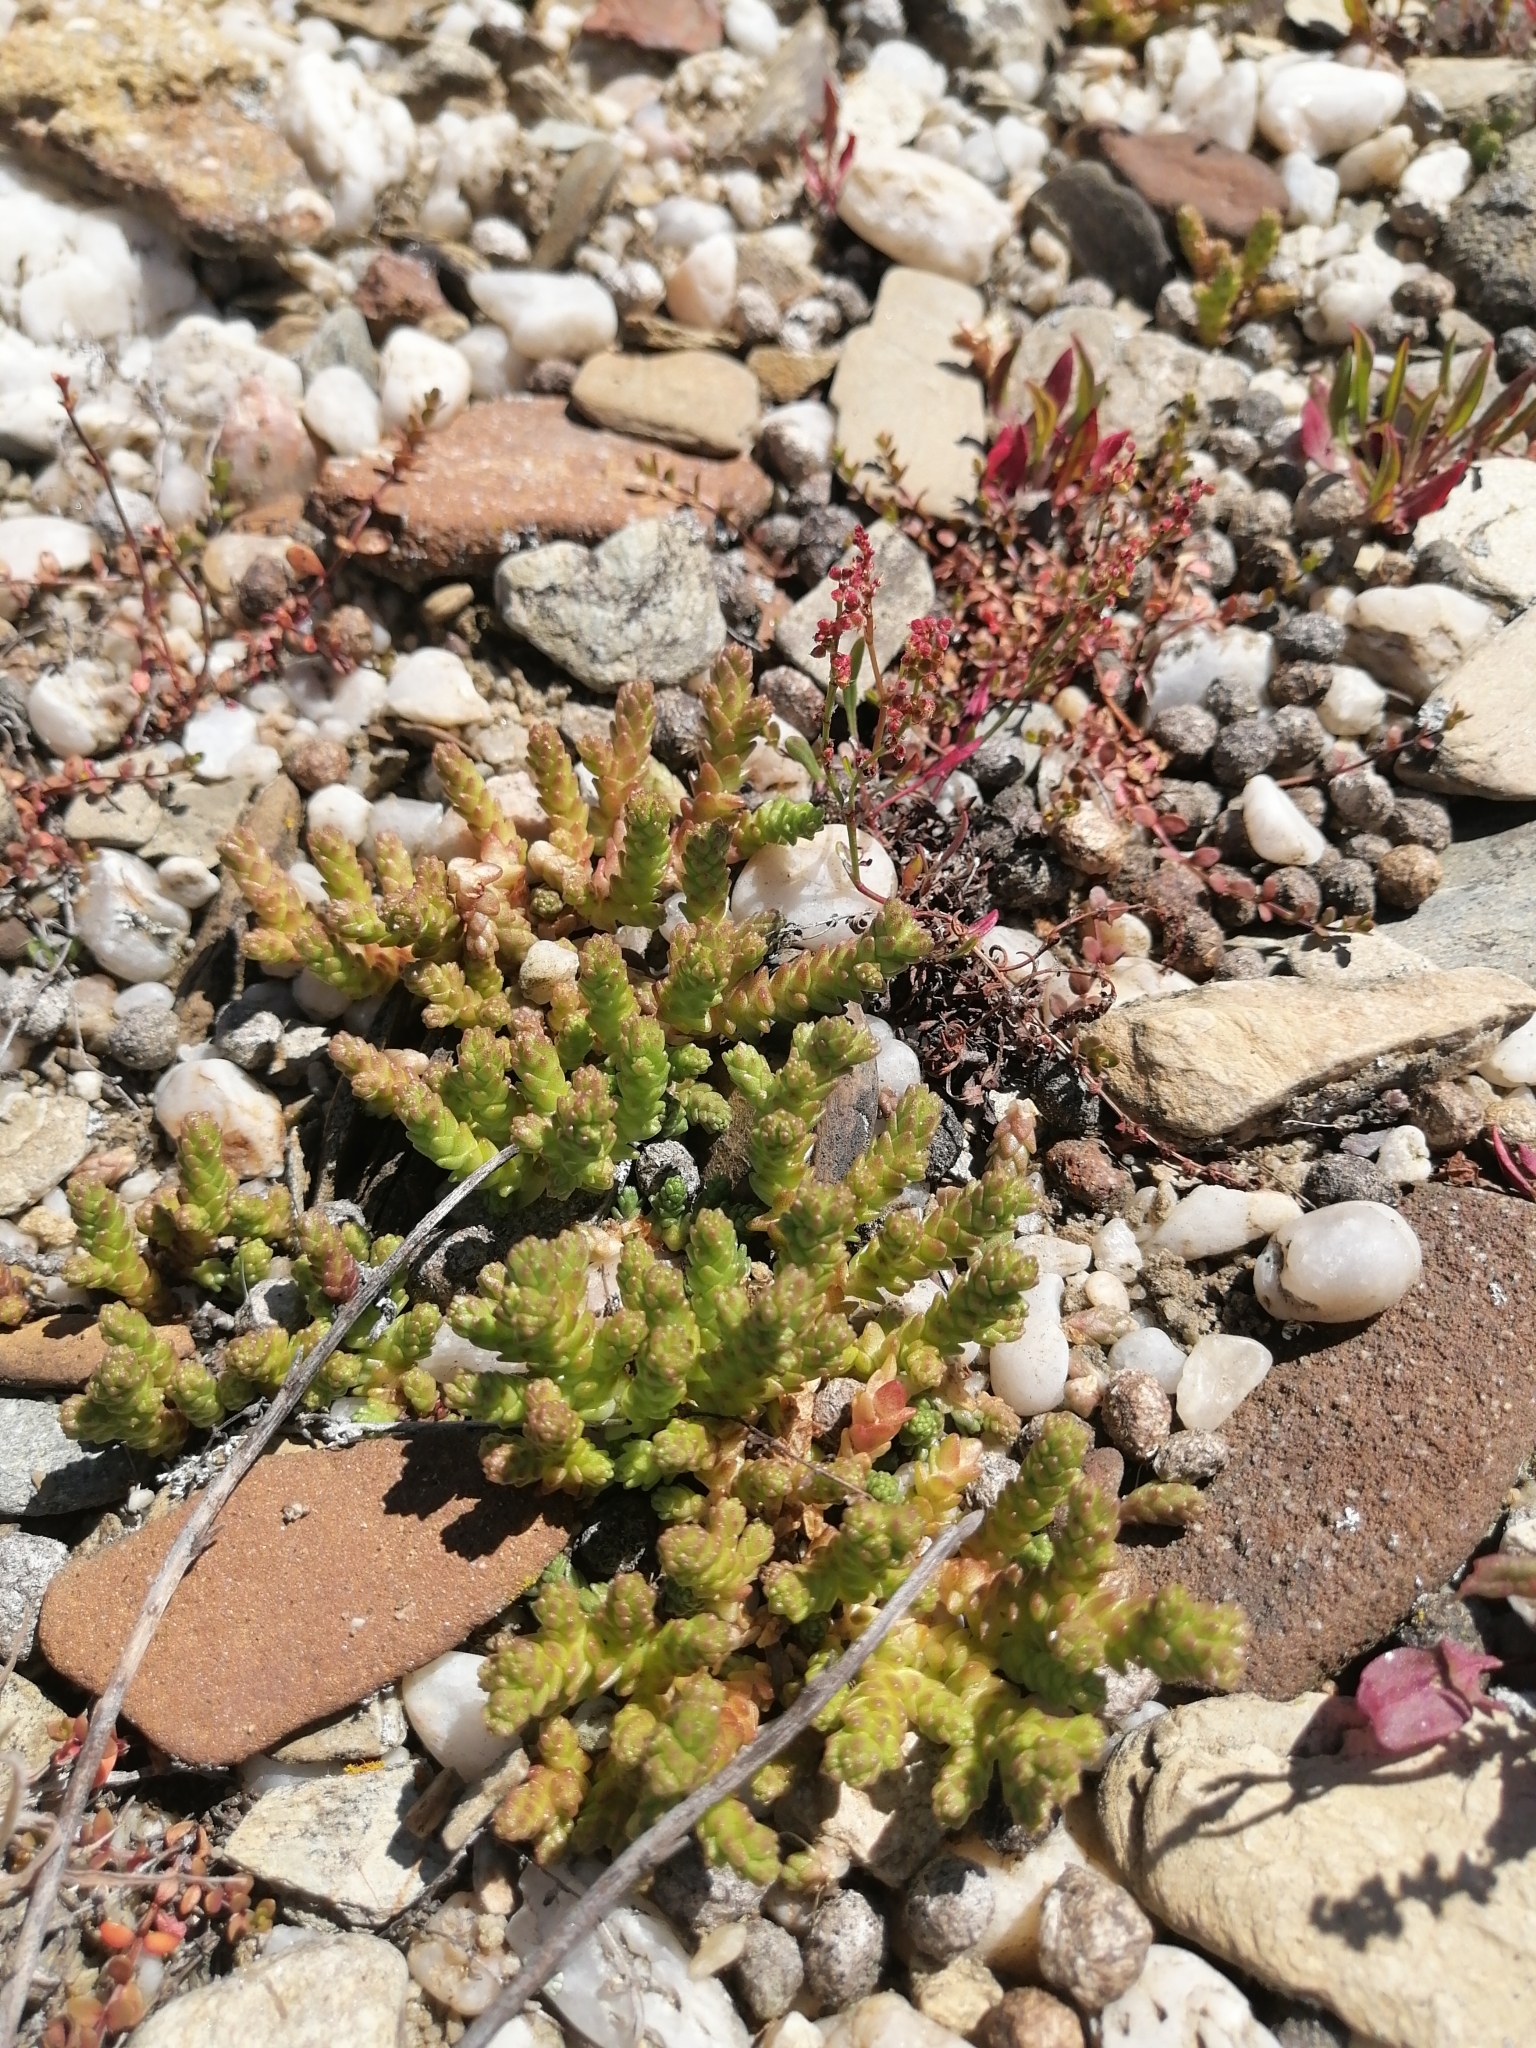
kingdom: Plantae
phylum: Tracheophyta
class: Magnoliopsida
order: Saxifragales
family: Crassulaceae
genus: Sedum
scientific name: Sedum acre
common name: Biting stonecrop
